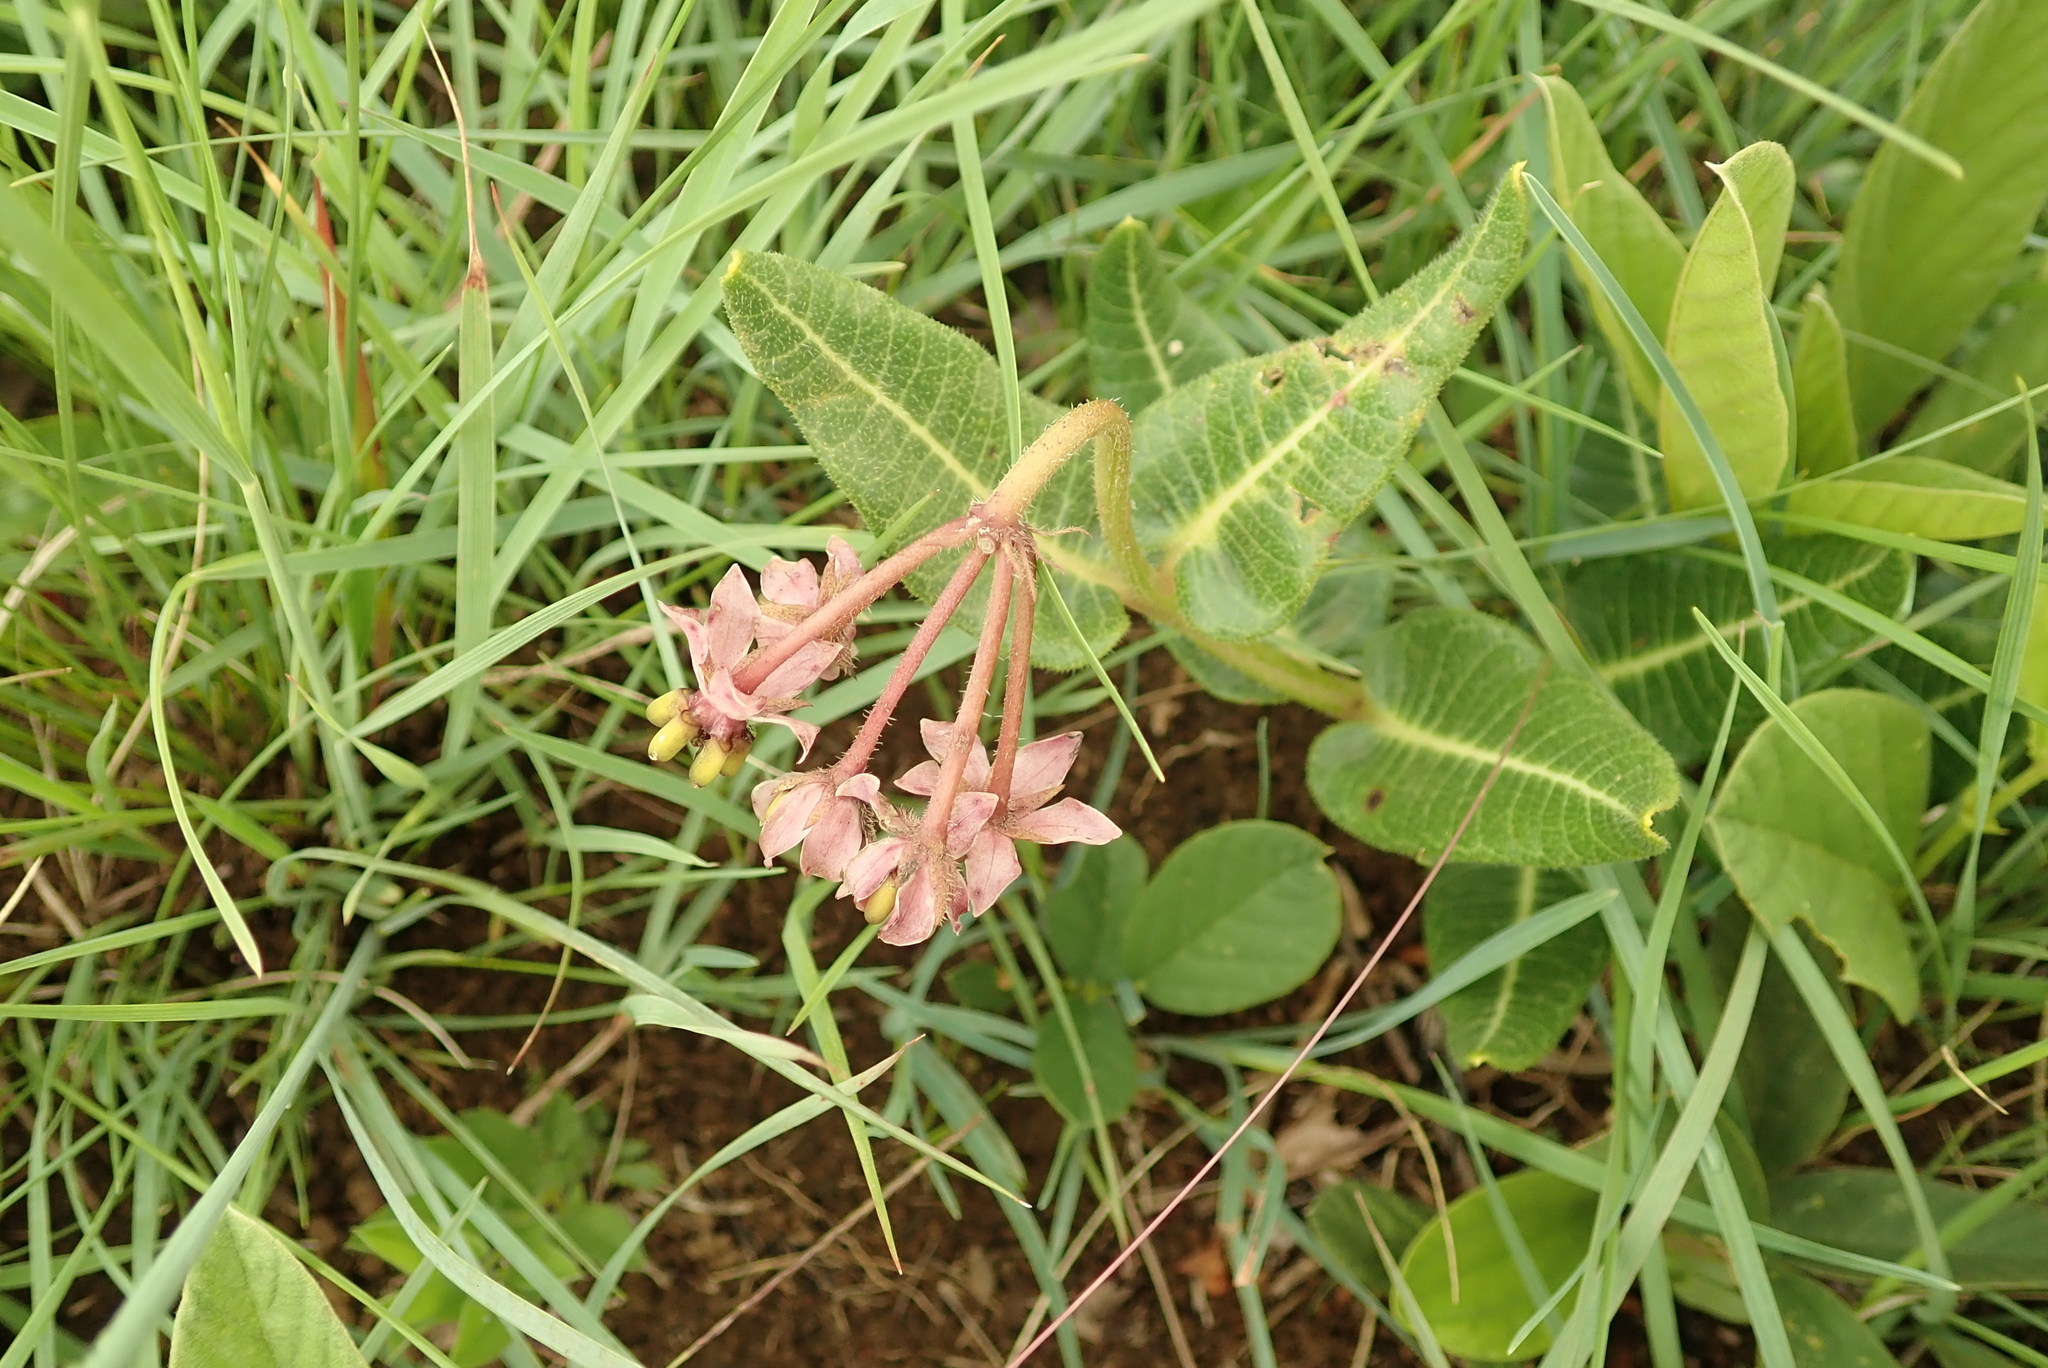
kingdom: Plantae
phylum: Tracheophyta
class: Magnoliopsida
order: Gentianales
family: Apocynaceae
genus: Asclepias
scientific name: Asclepias albens
